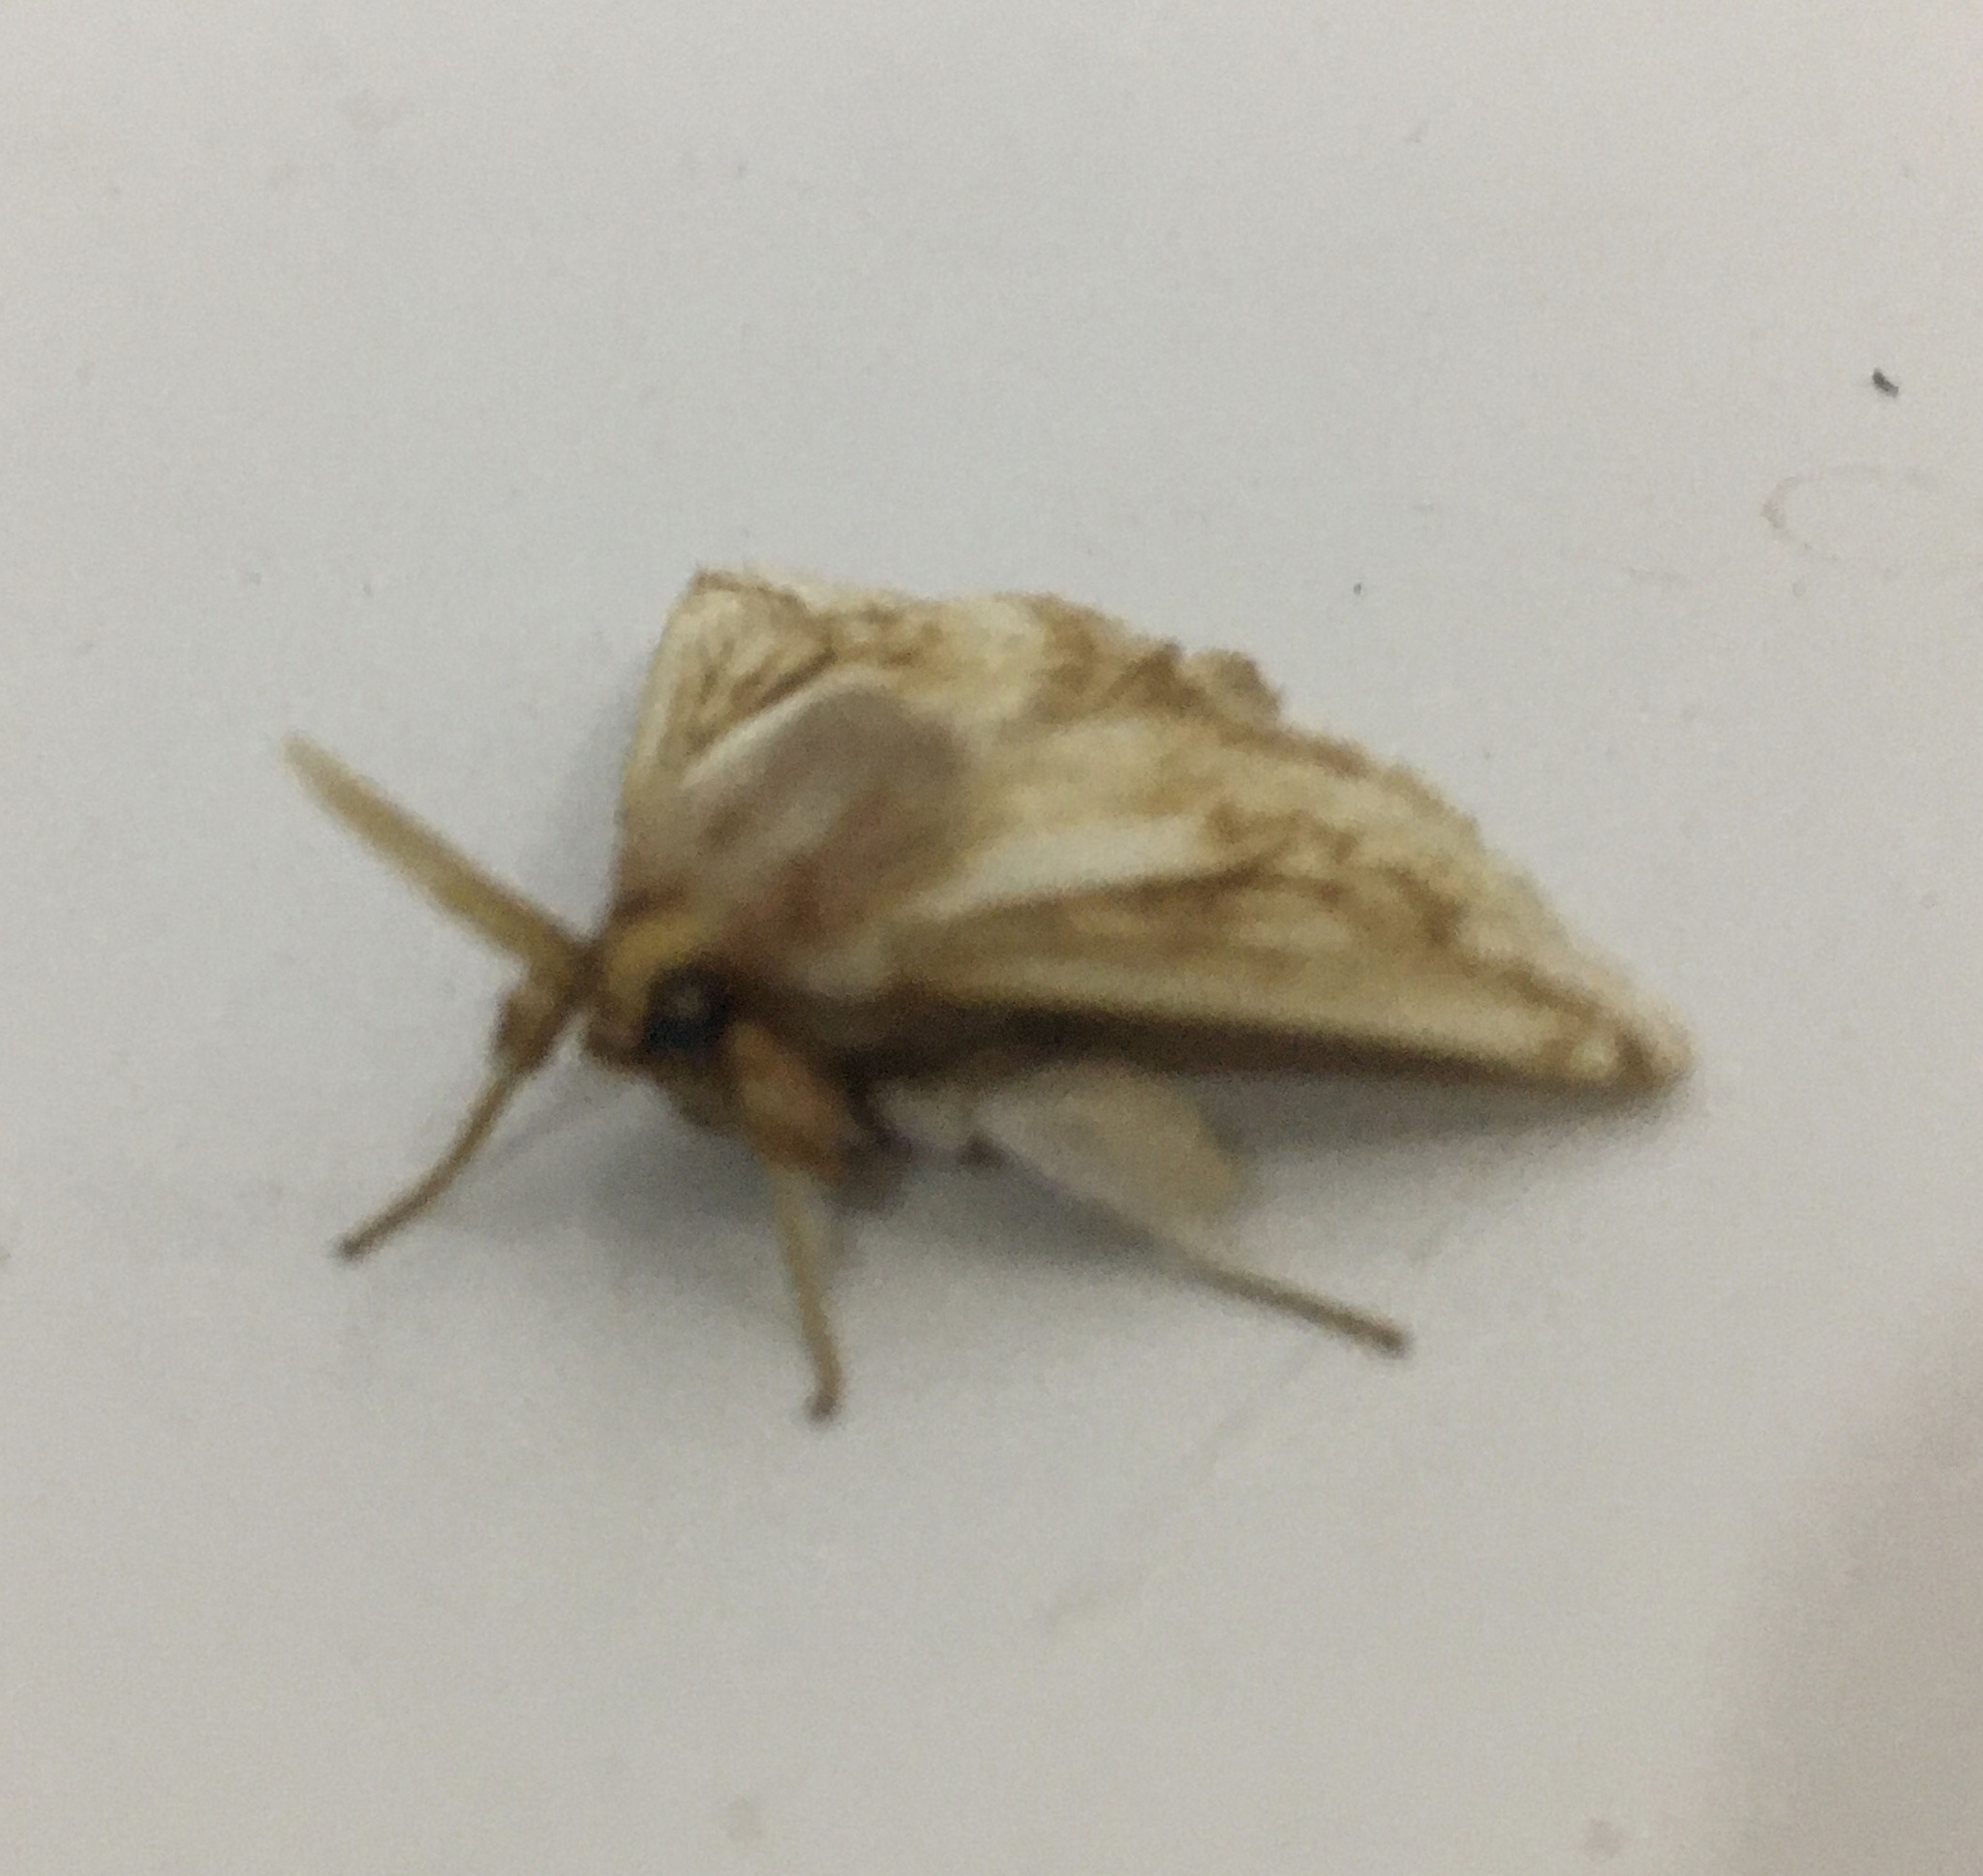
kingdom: Animalia
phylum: Arthropoda
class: Insecta
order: Lepidoptera
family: Limacodidae
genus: Perola
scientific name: Perola sericea
